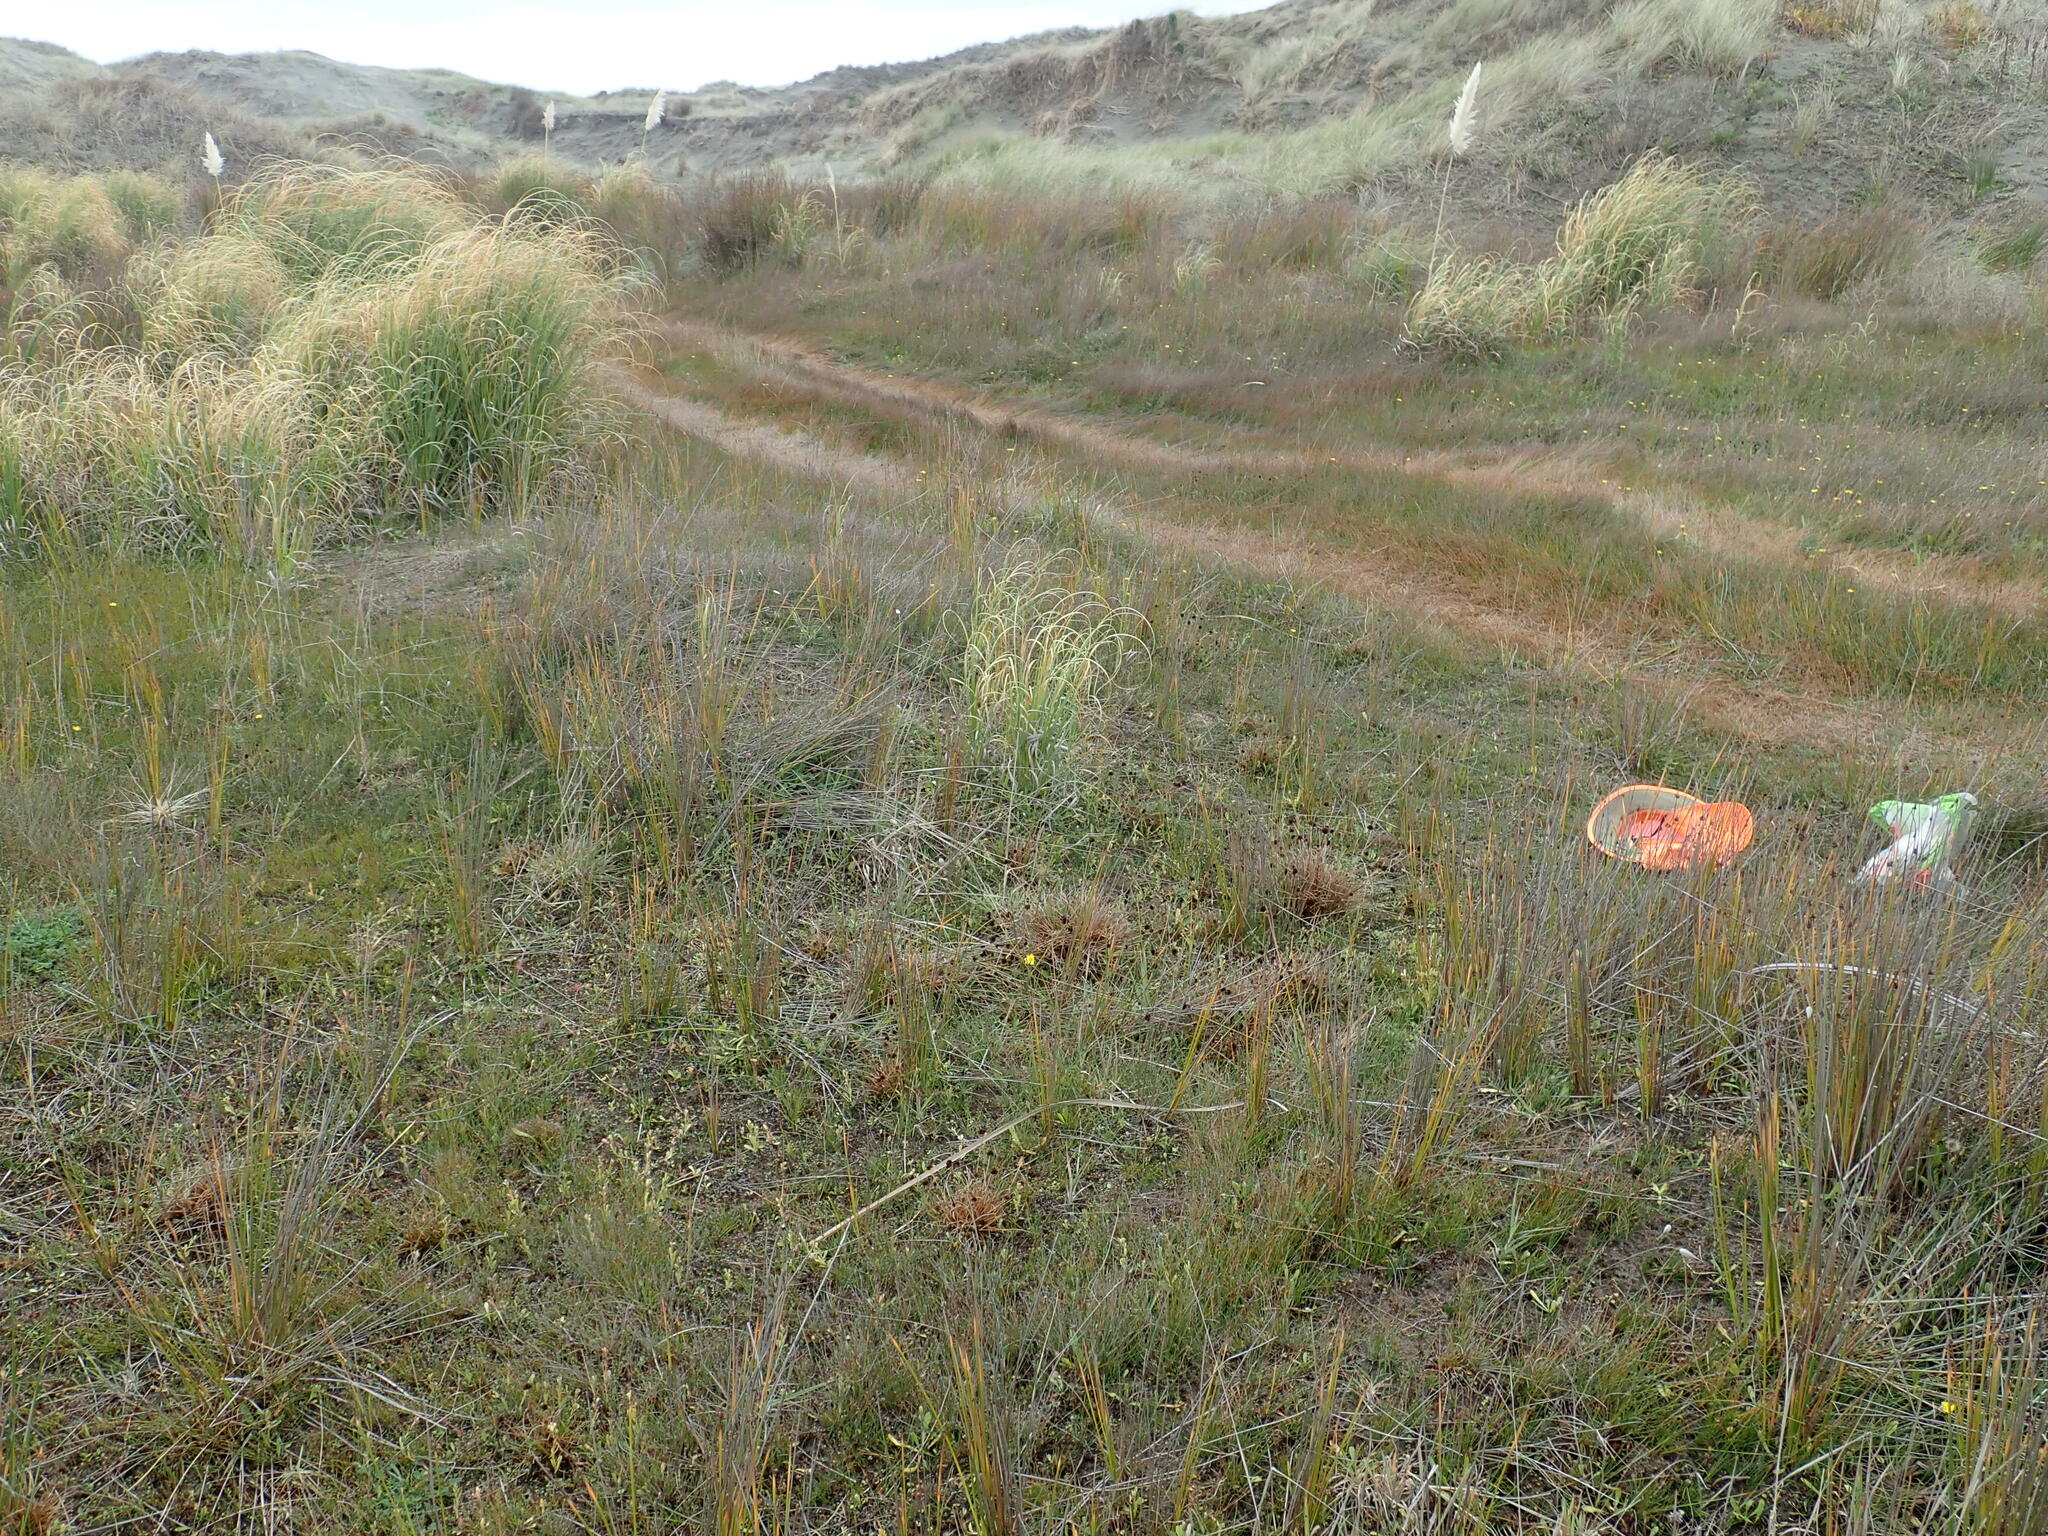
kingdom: Plantae
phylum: Tracheophyta
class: Liliopsida
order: Alismatales
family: Juncaginaceae
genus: Triglochin
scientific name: Triglochin striata
